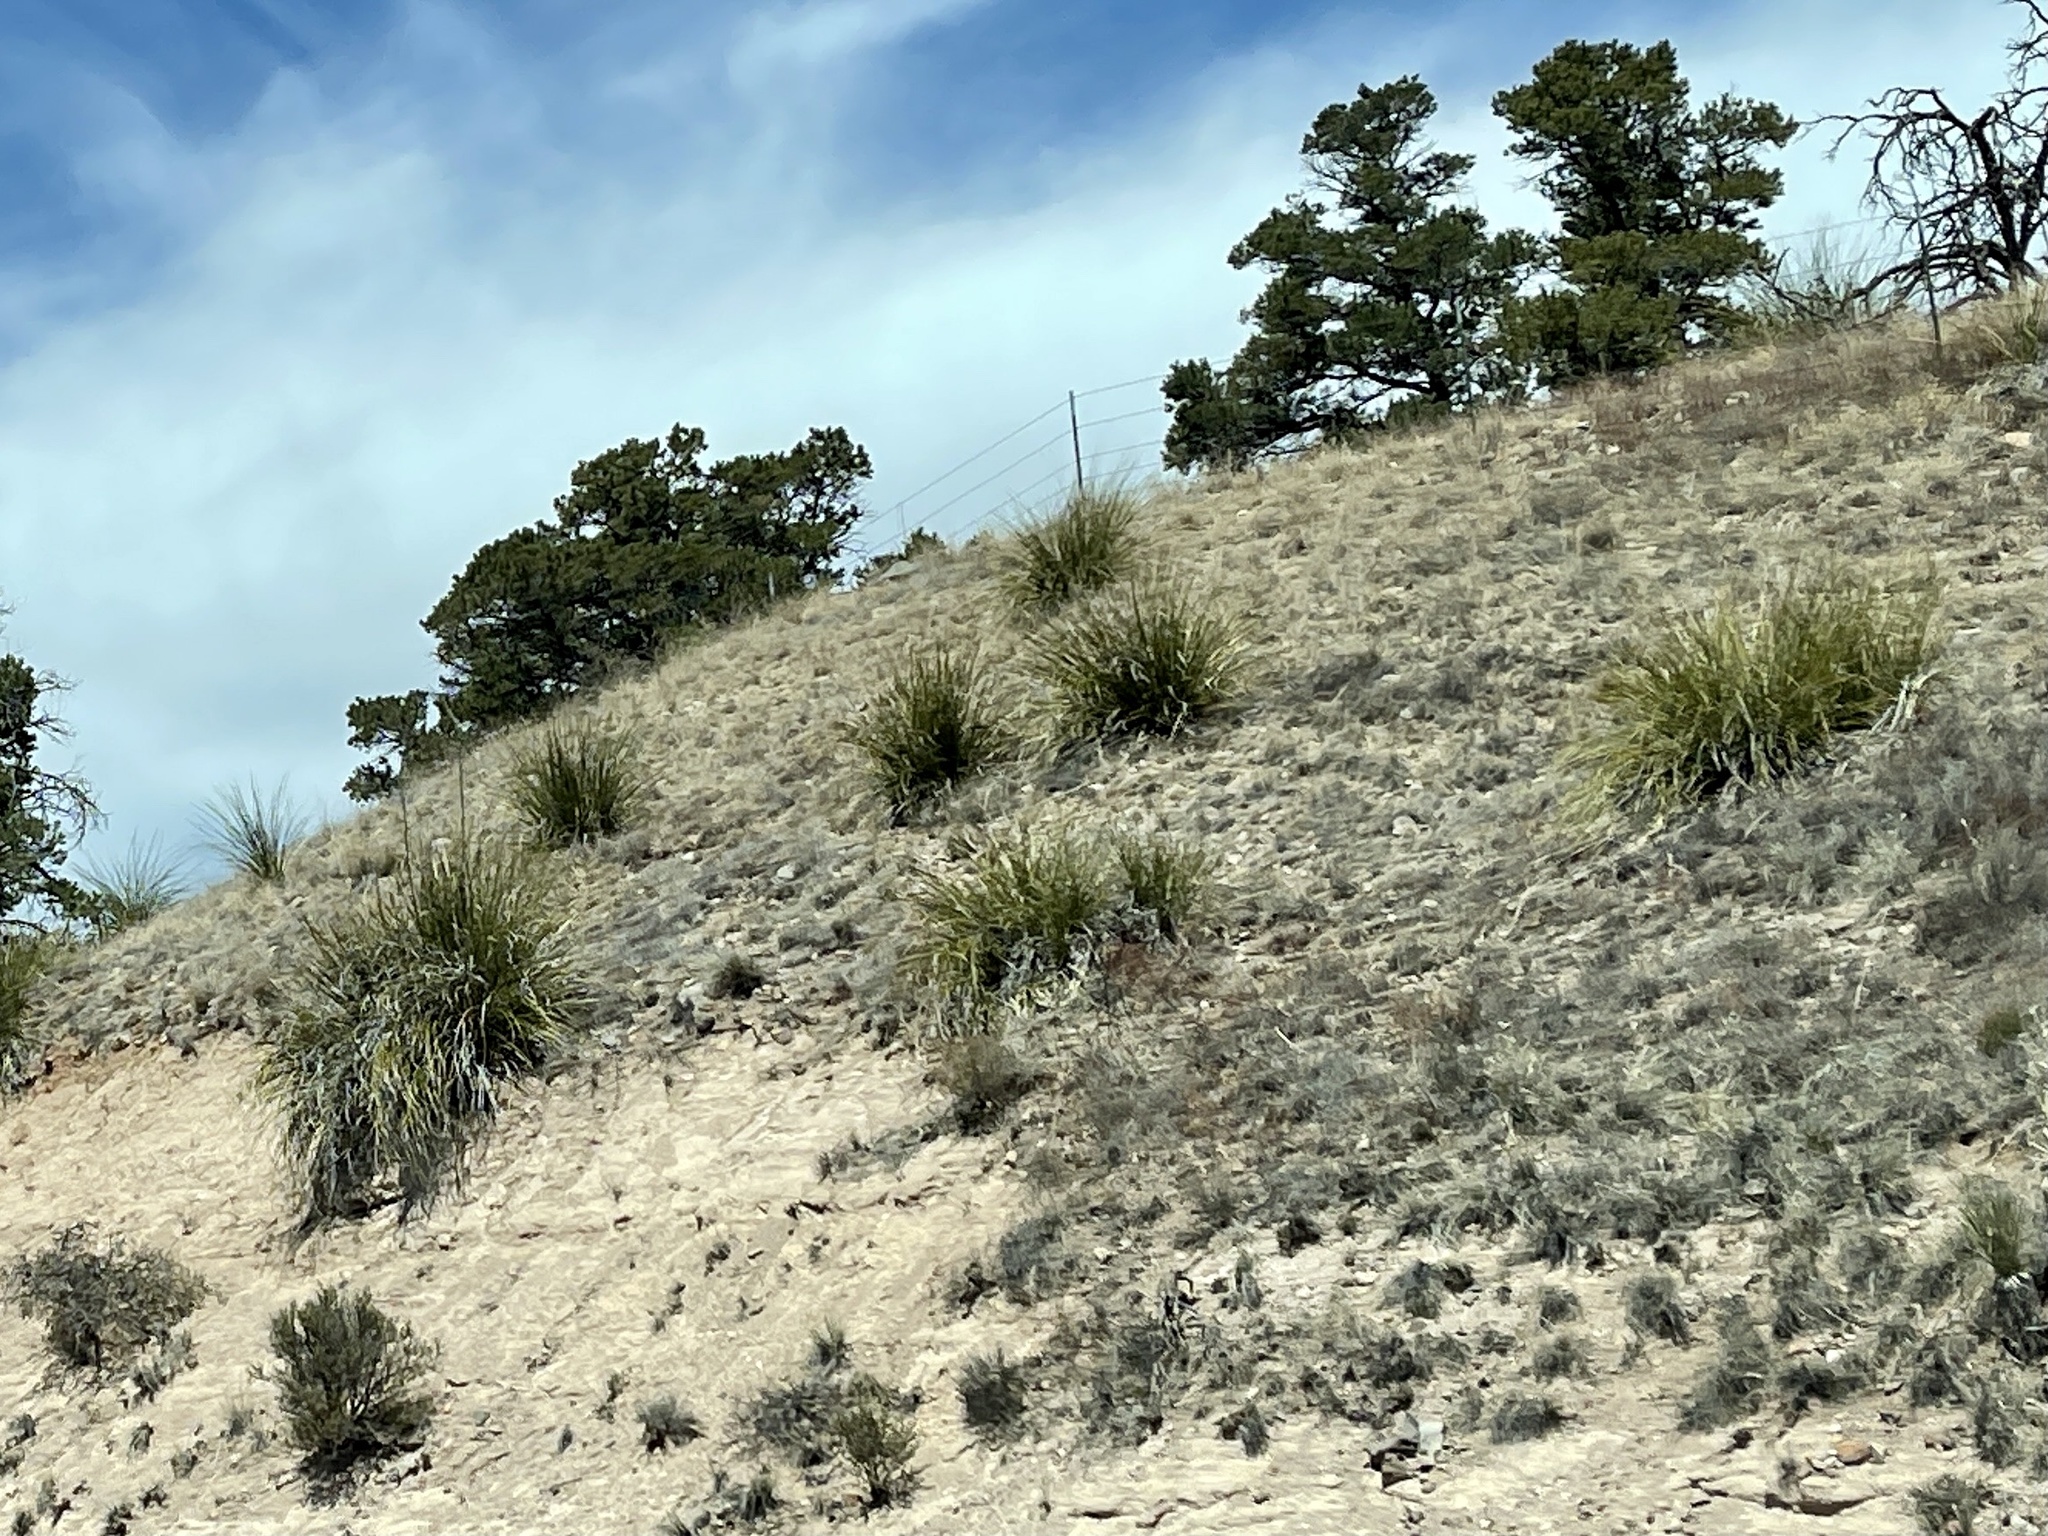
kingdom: Plantae
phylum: Tracheophyta
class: Liliopsida
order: Asparagales
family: Asparagaceae
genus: Nolina
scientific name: Nolina microcarpa
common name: Bear-grass
